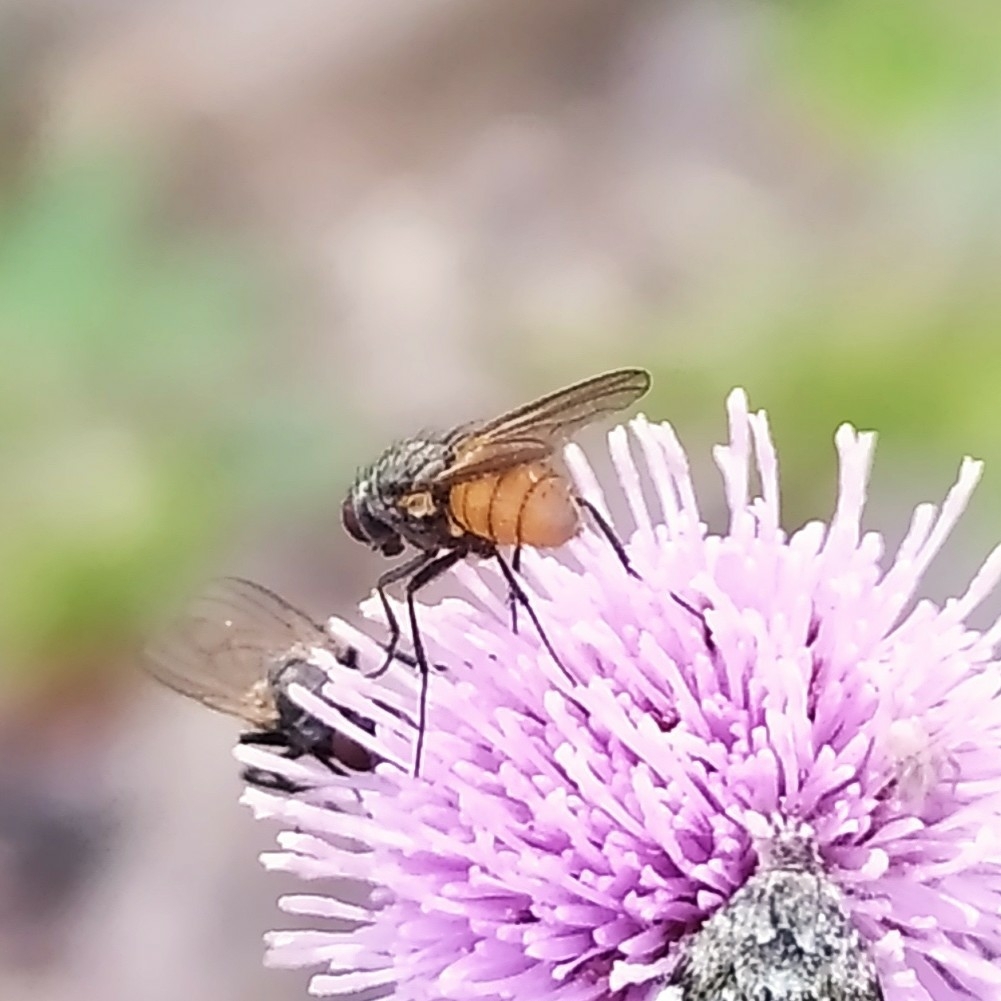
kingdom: Animalia
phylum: Arthropoda
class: Insecta
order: Diptera
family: Muscidae
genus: Thricops
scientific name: Thricops semicinereus
